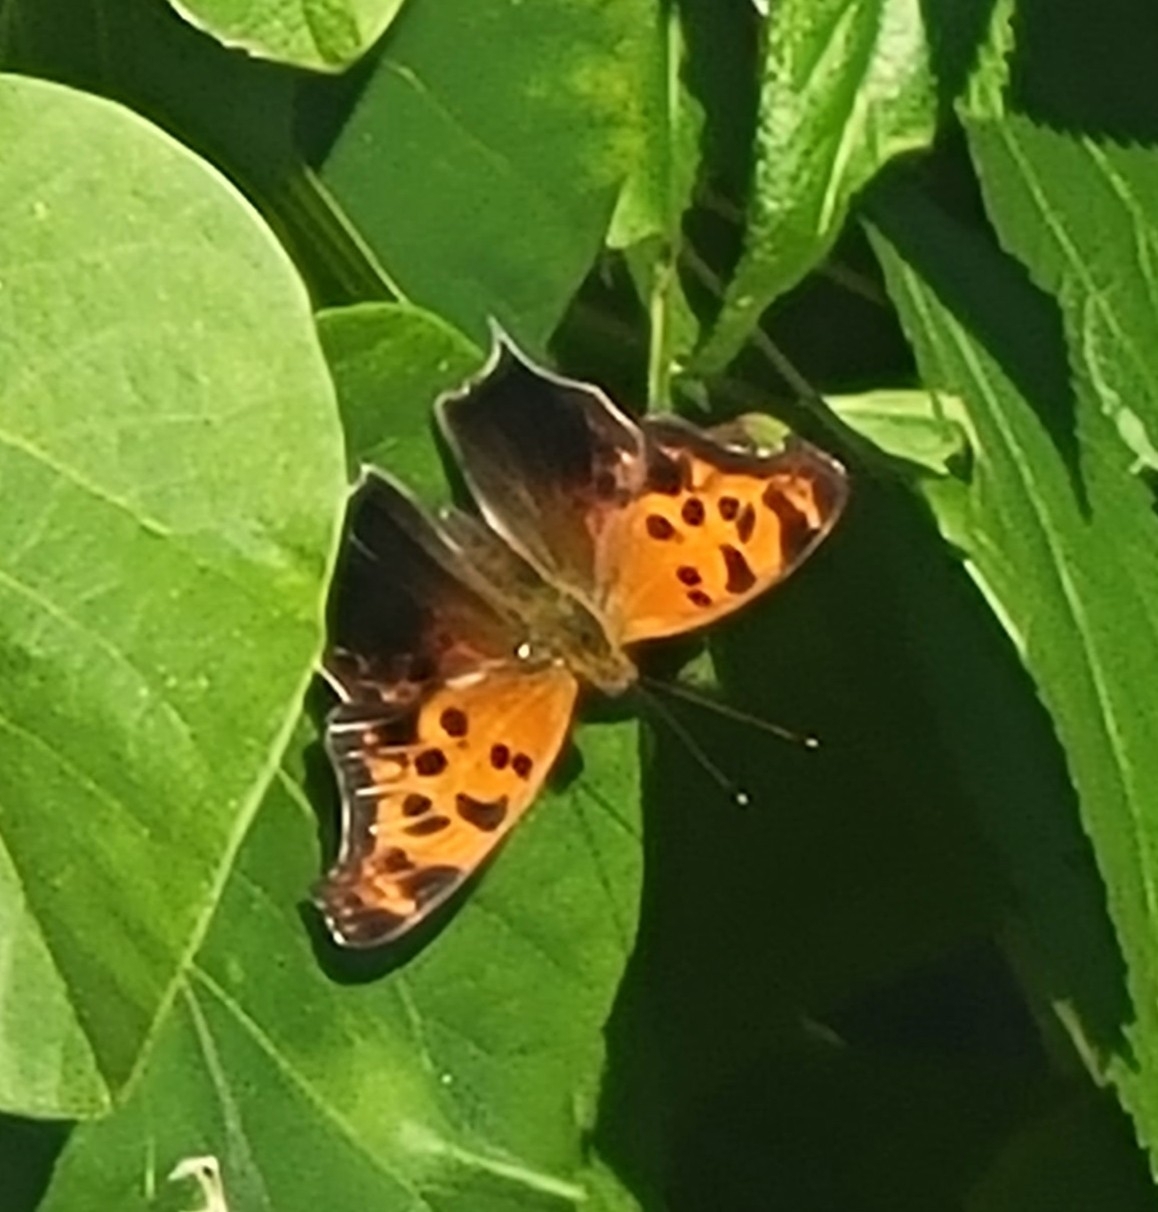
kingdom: Animalia
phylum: Arthropoda
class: Insecta
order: Lepidoptera
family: Nymphalidae
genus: Polygonia
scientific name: Polygonia interrogationis
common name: Question mark
